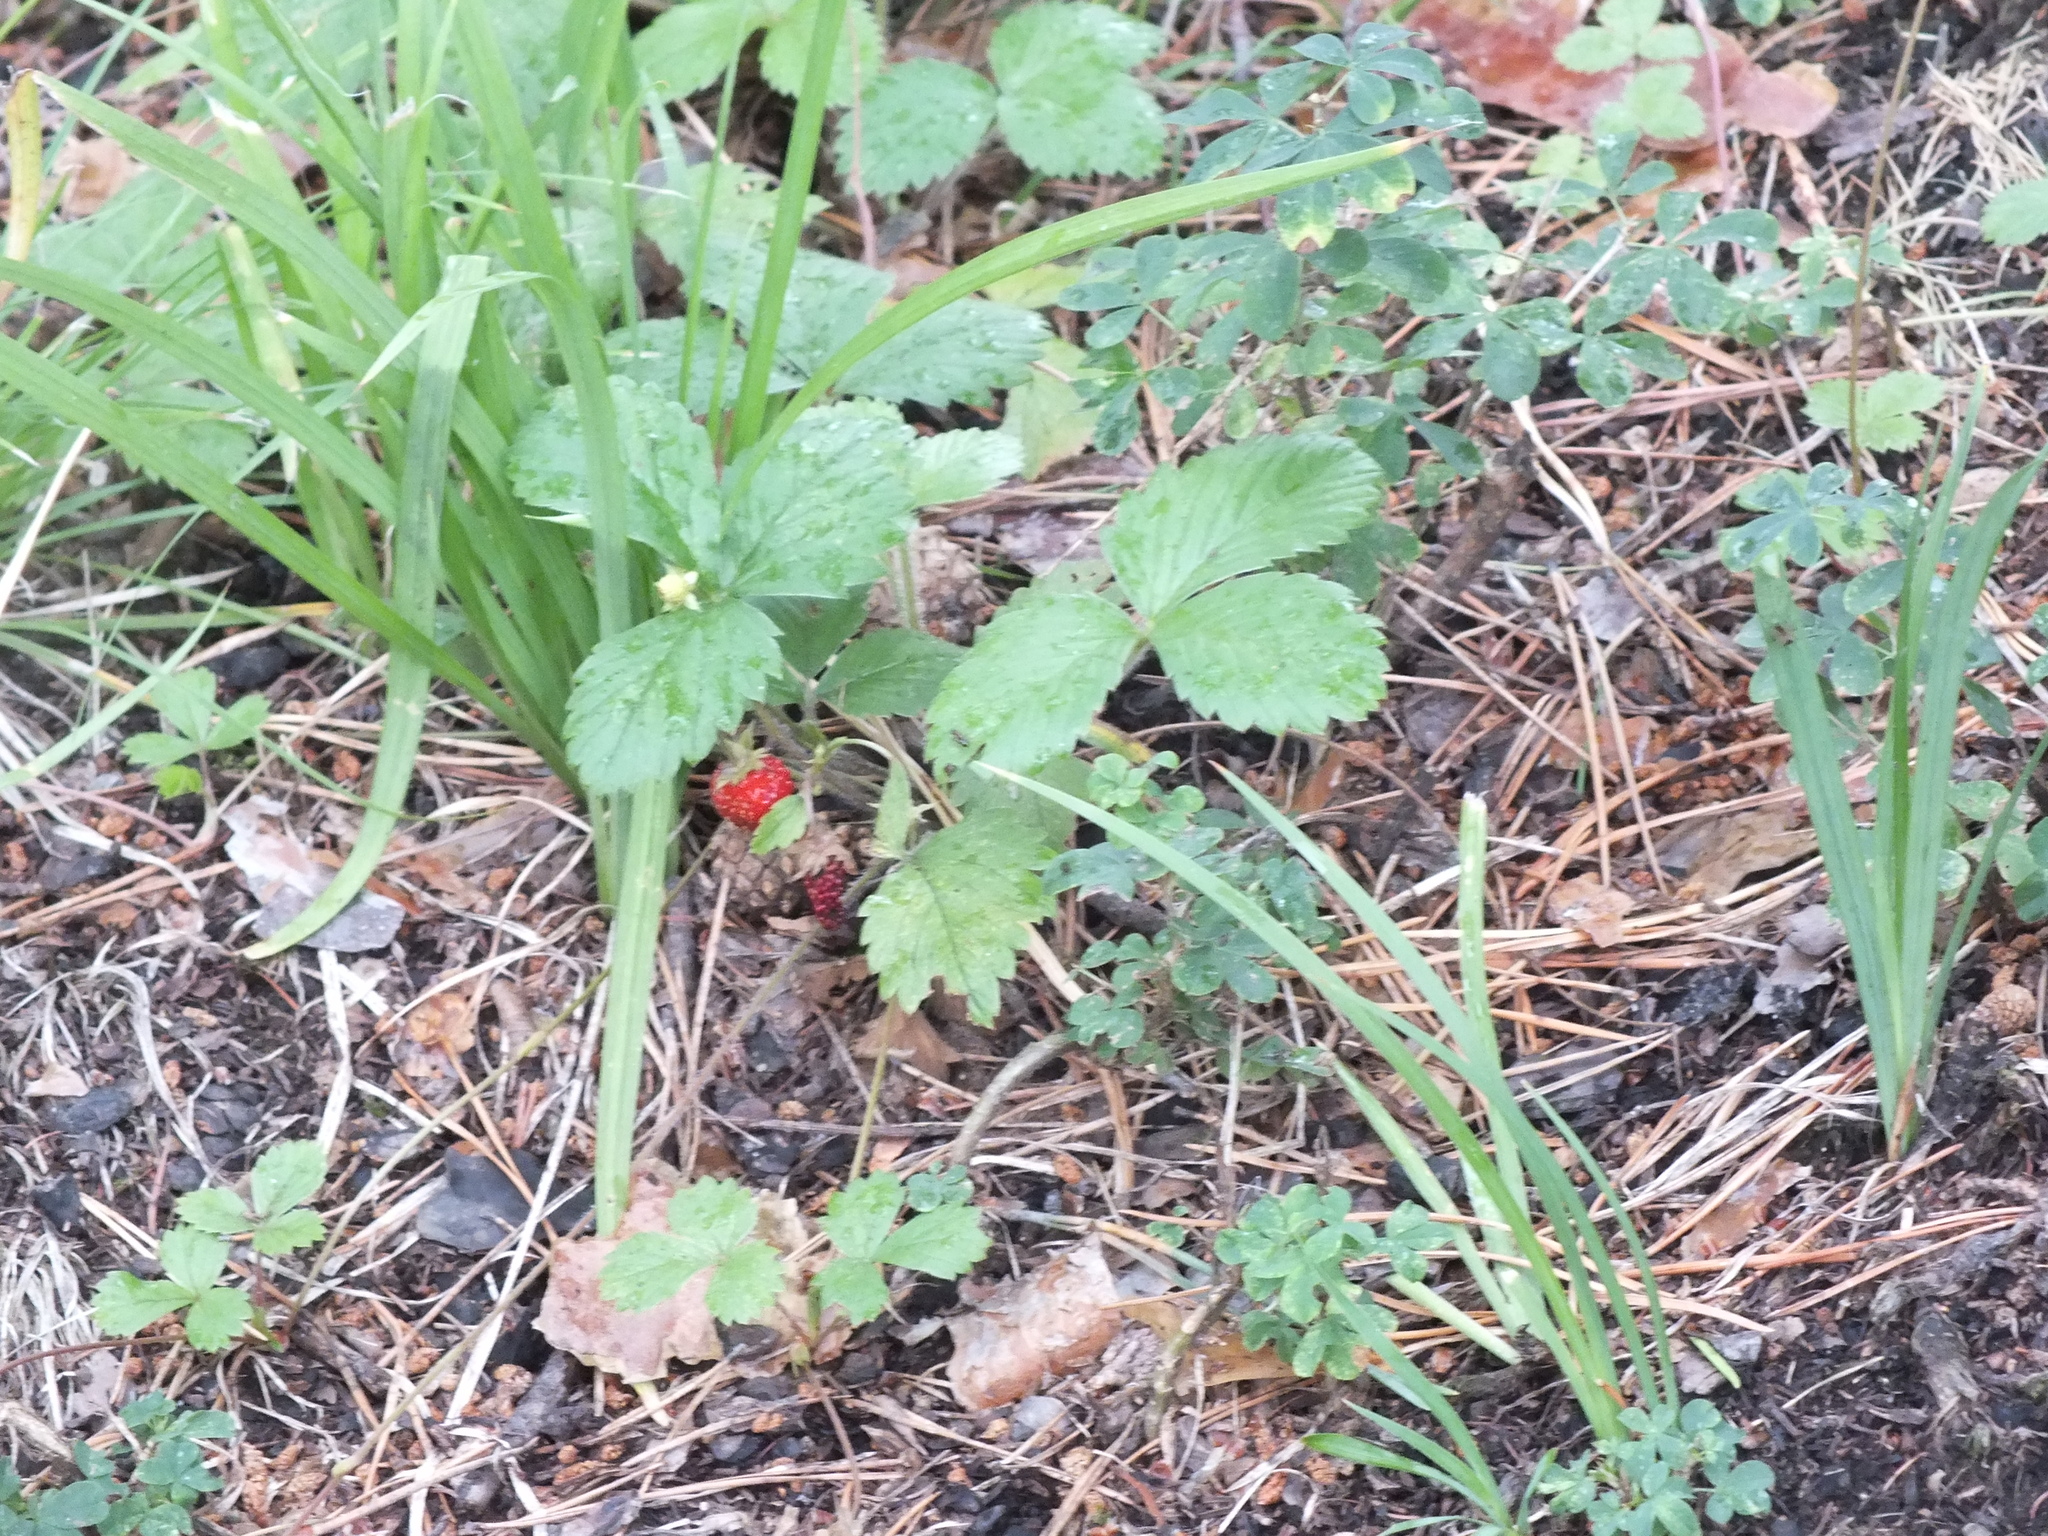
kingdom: Plantae
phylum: Tracheophyta
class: Magnoliopsida
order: Rosales
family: Rosaceae
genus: Fragaria
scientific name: Fragaria vesca
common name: Wild strawberry
